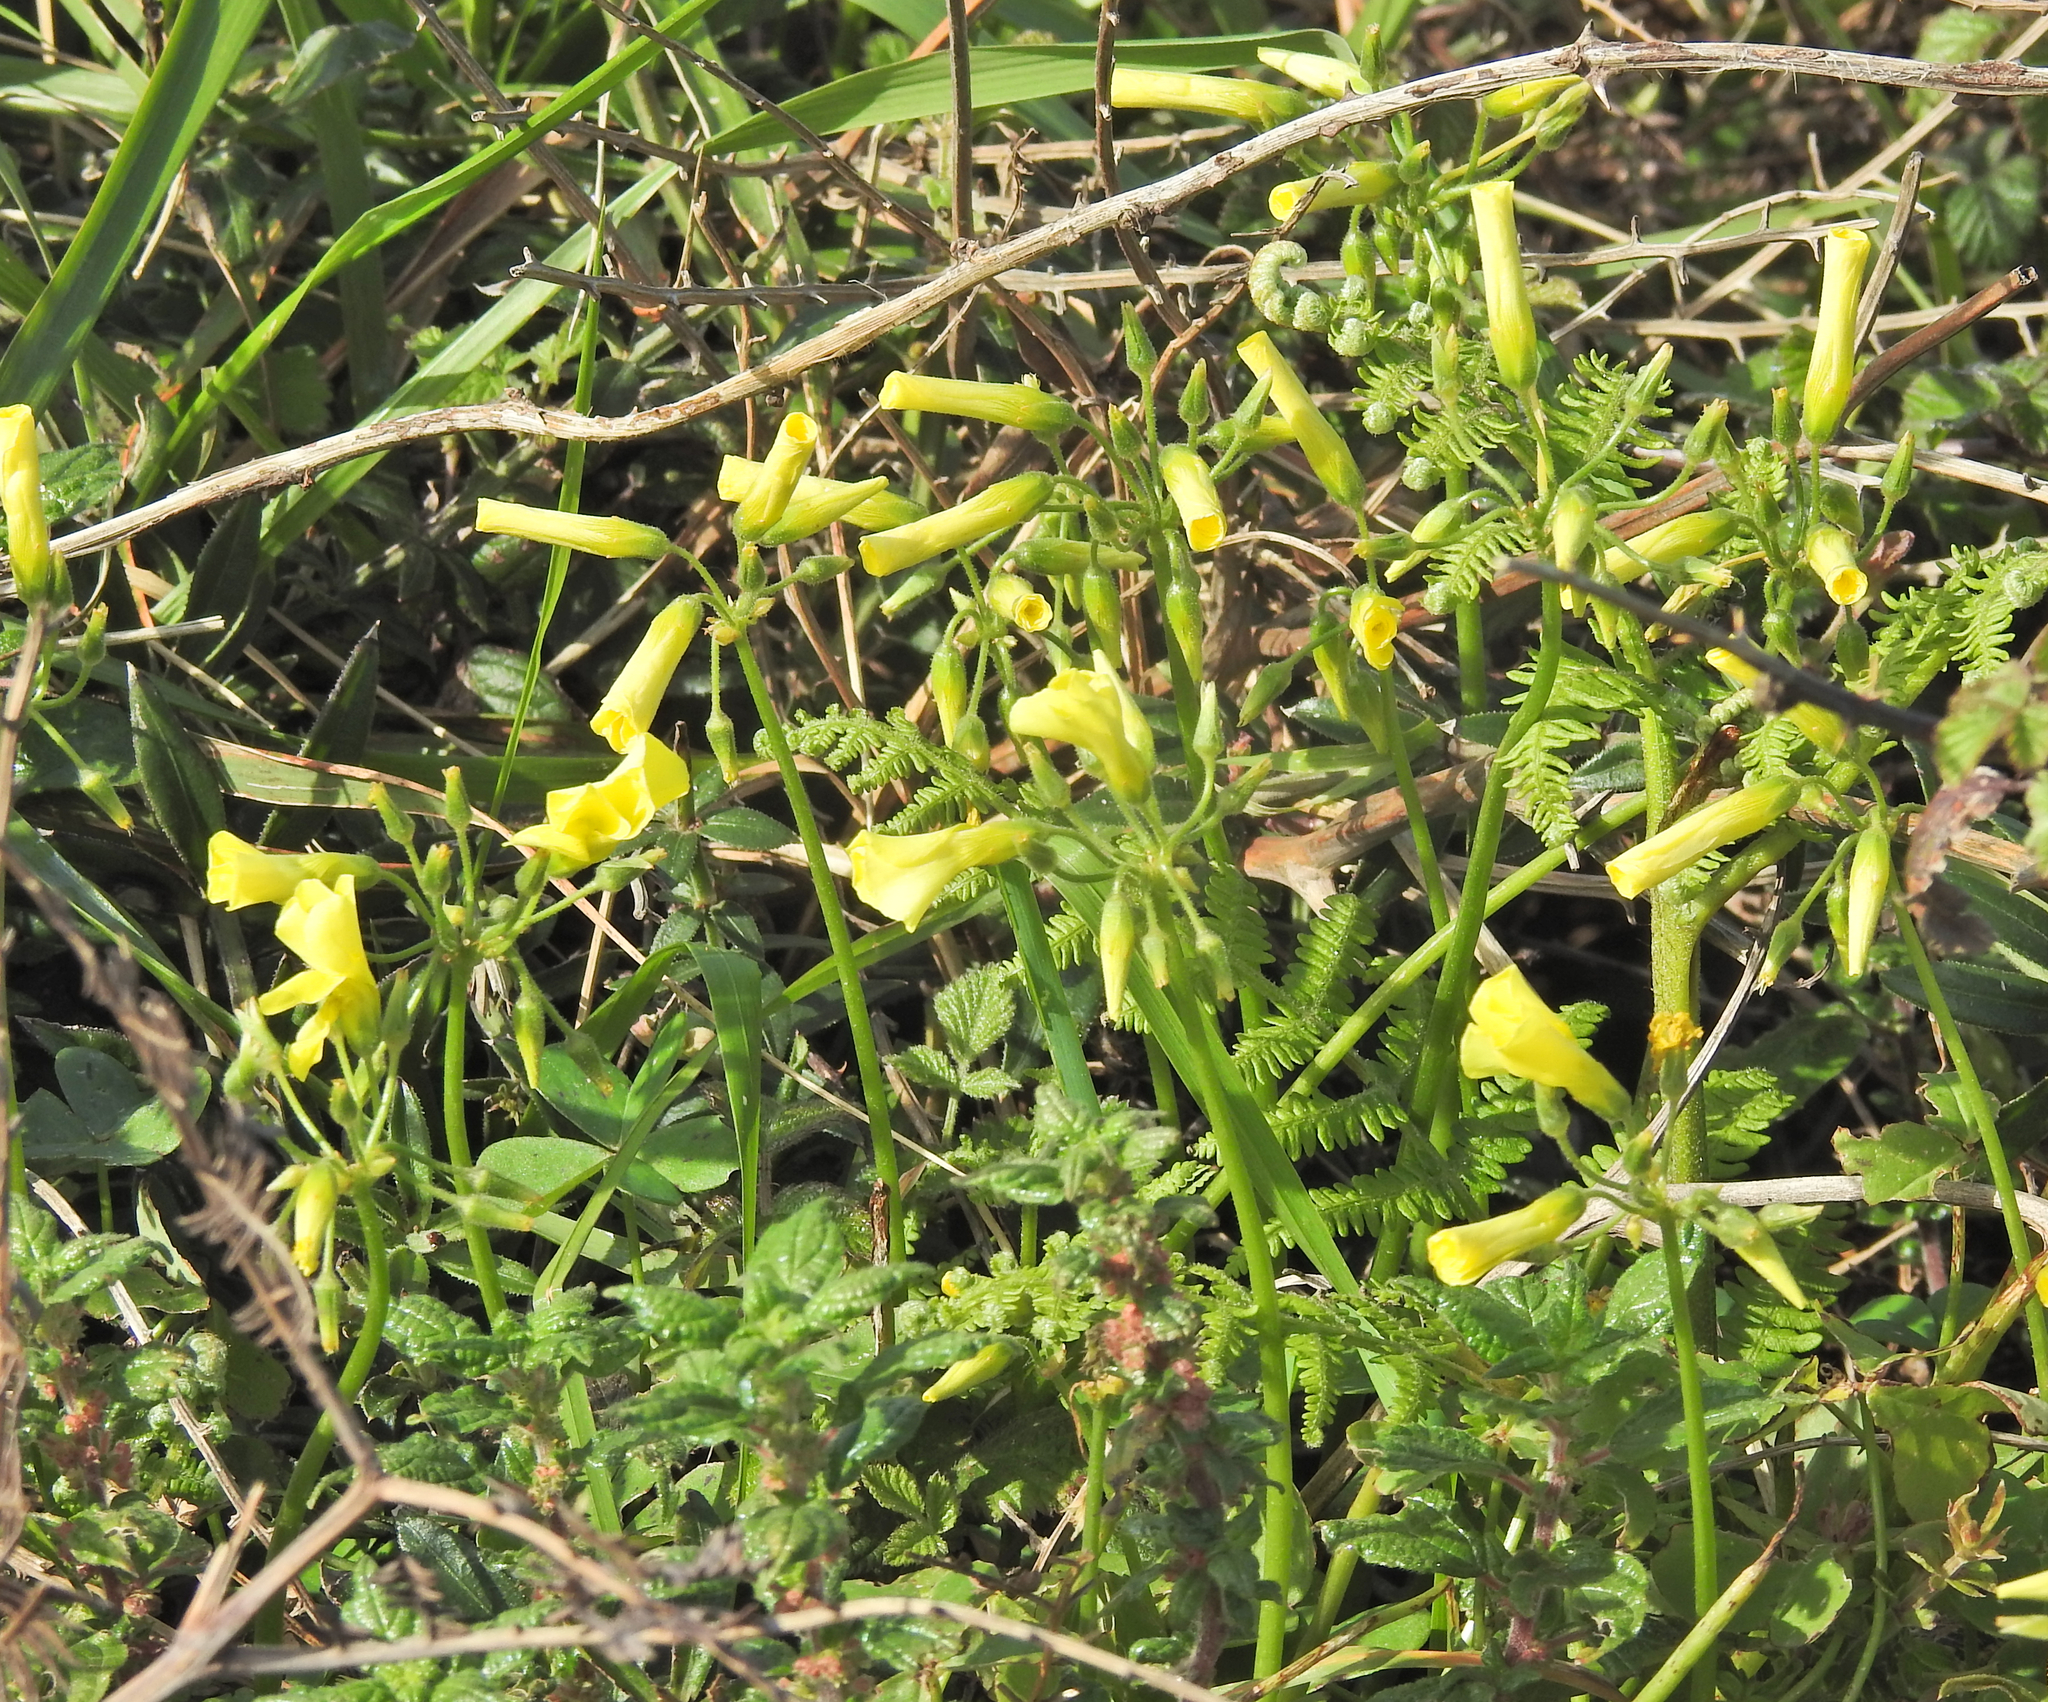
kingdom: Plantae
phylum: Tracheophyta
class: Magnoliopsida
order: Oxalidales
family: Oxalidaceae
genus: Oxalis
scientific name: Oxalis pes-caprae
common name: Bermuda-buttercup
